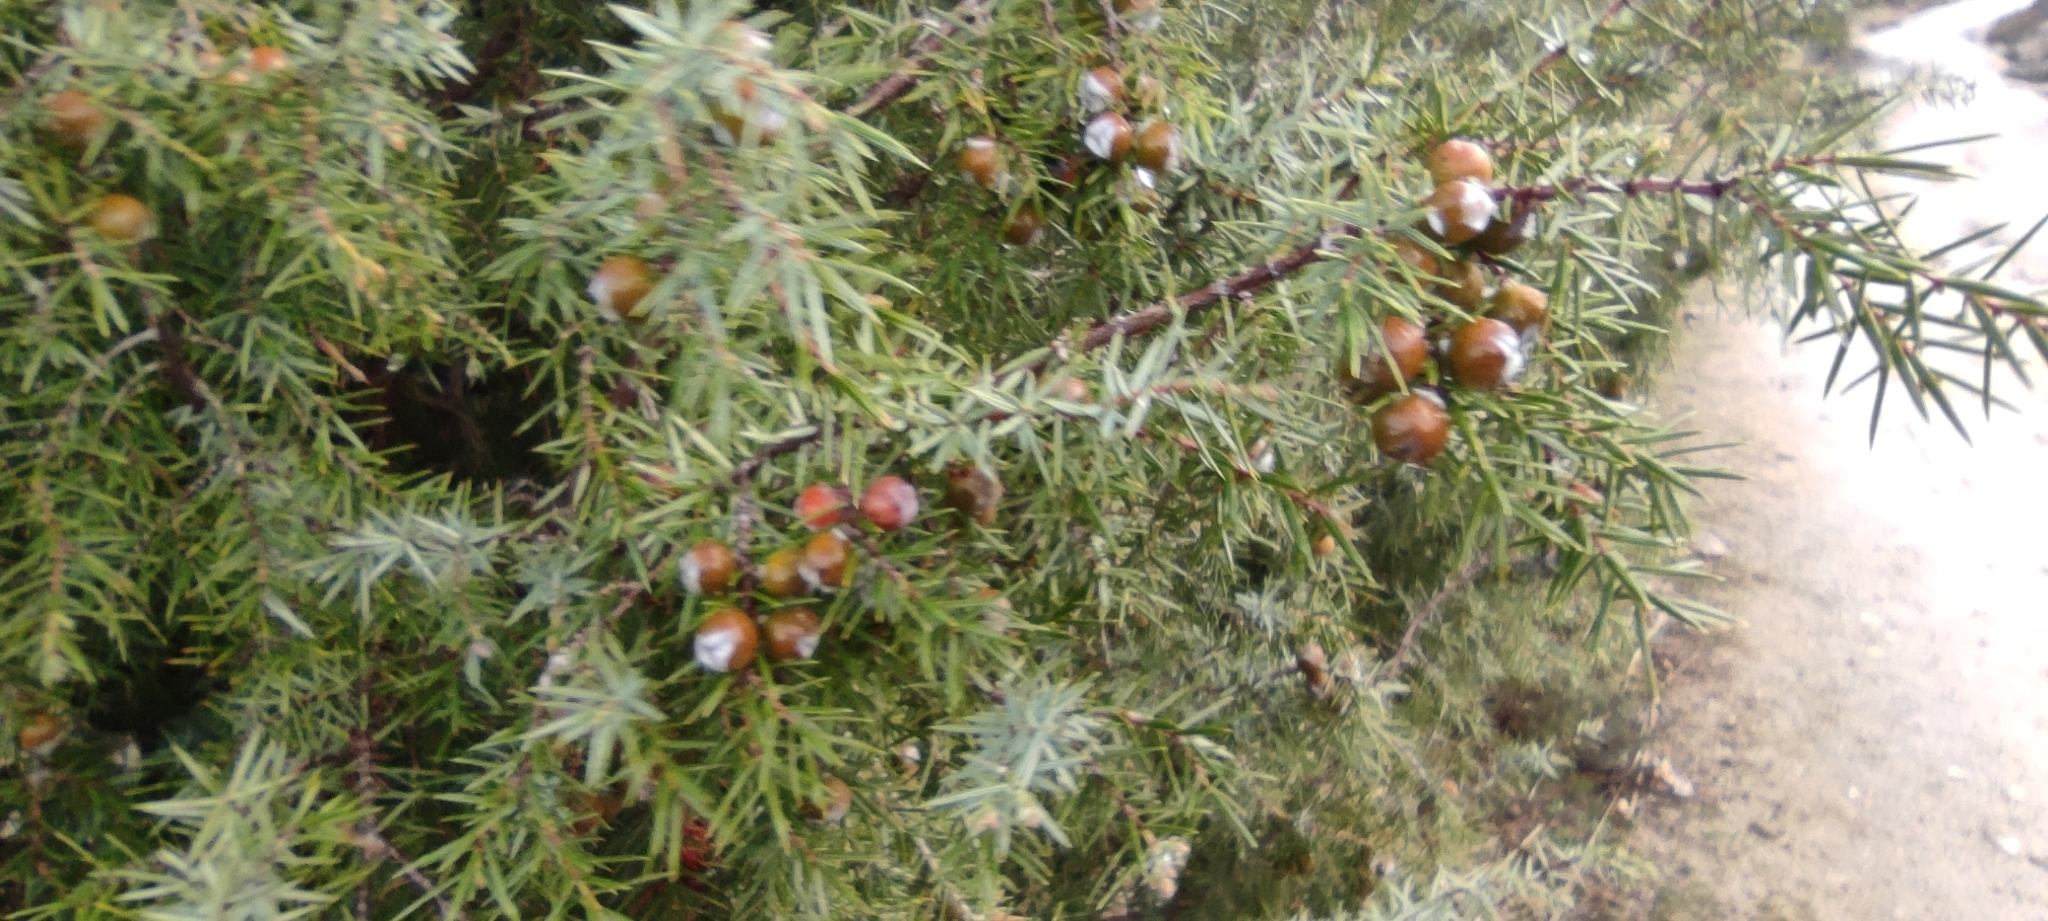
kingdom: Plantae
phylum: Tracheophyta
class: Pinopsida
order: Pinales
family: Cupressaceae
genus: Juniperus
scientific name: Juniperus oxycedrus
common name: Prickly juniper
